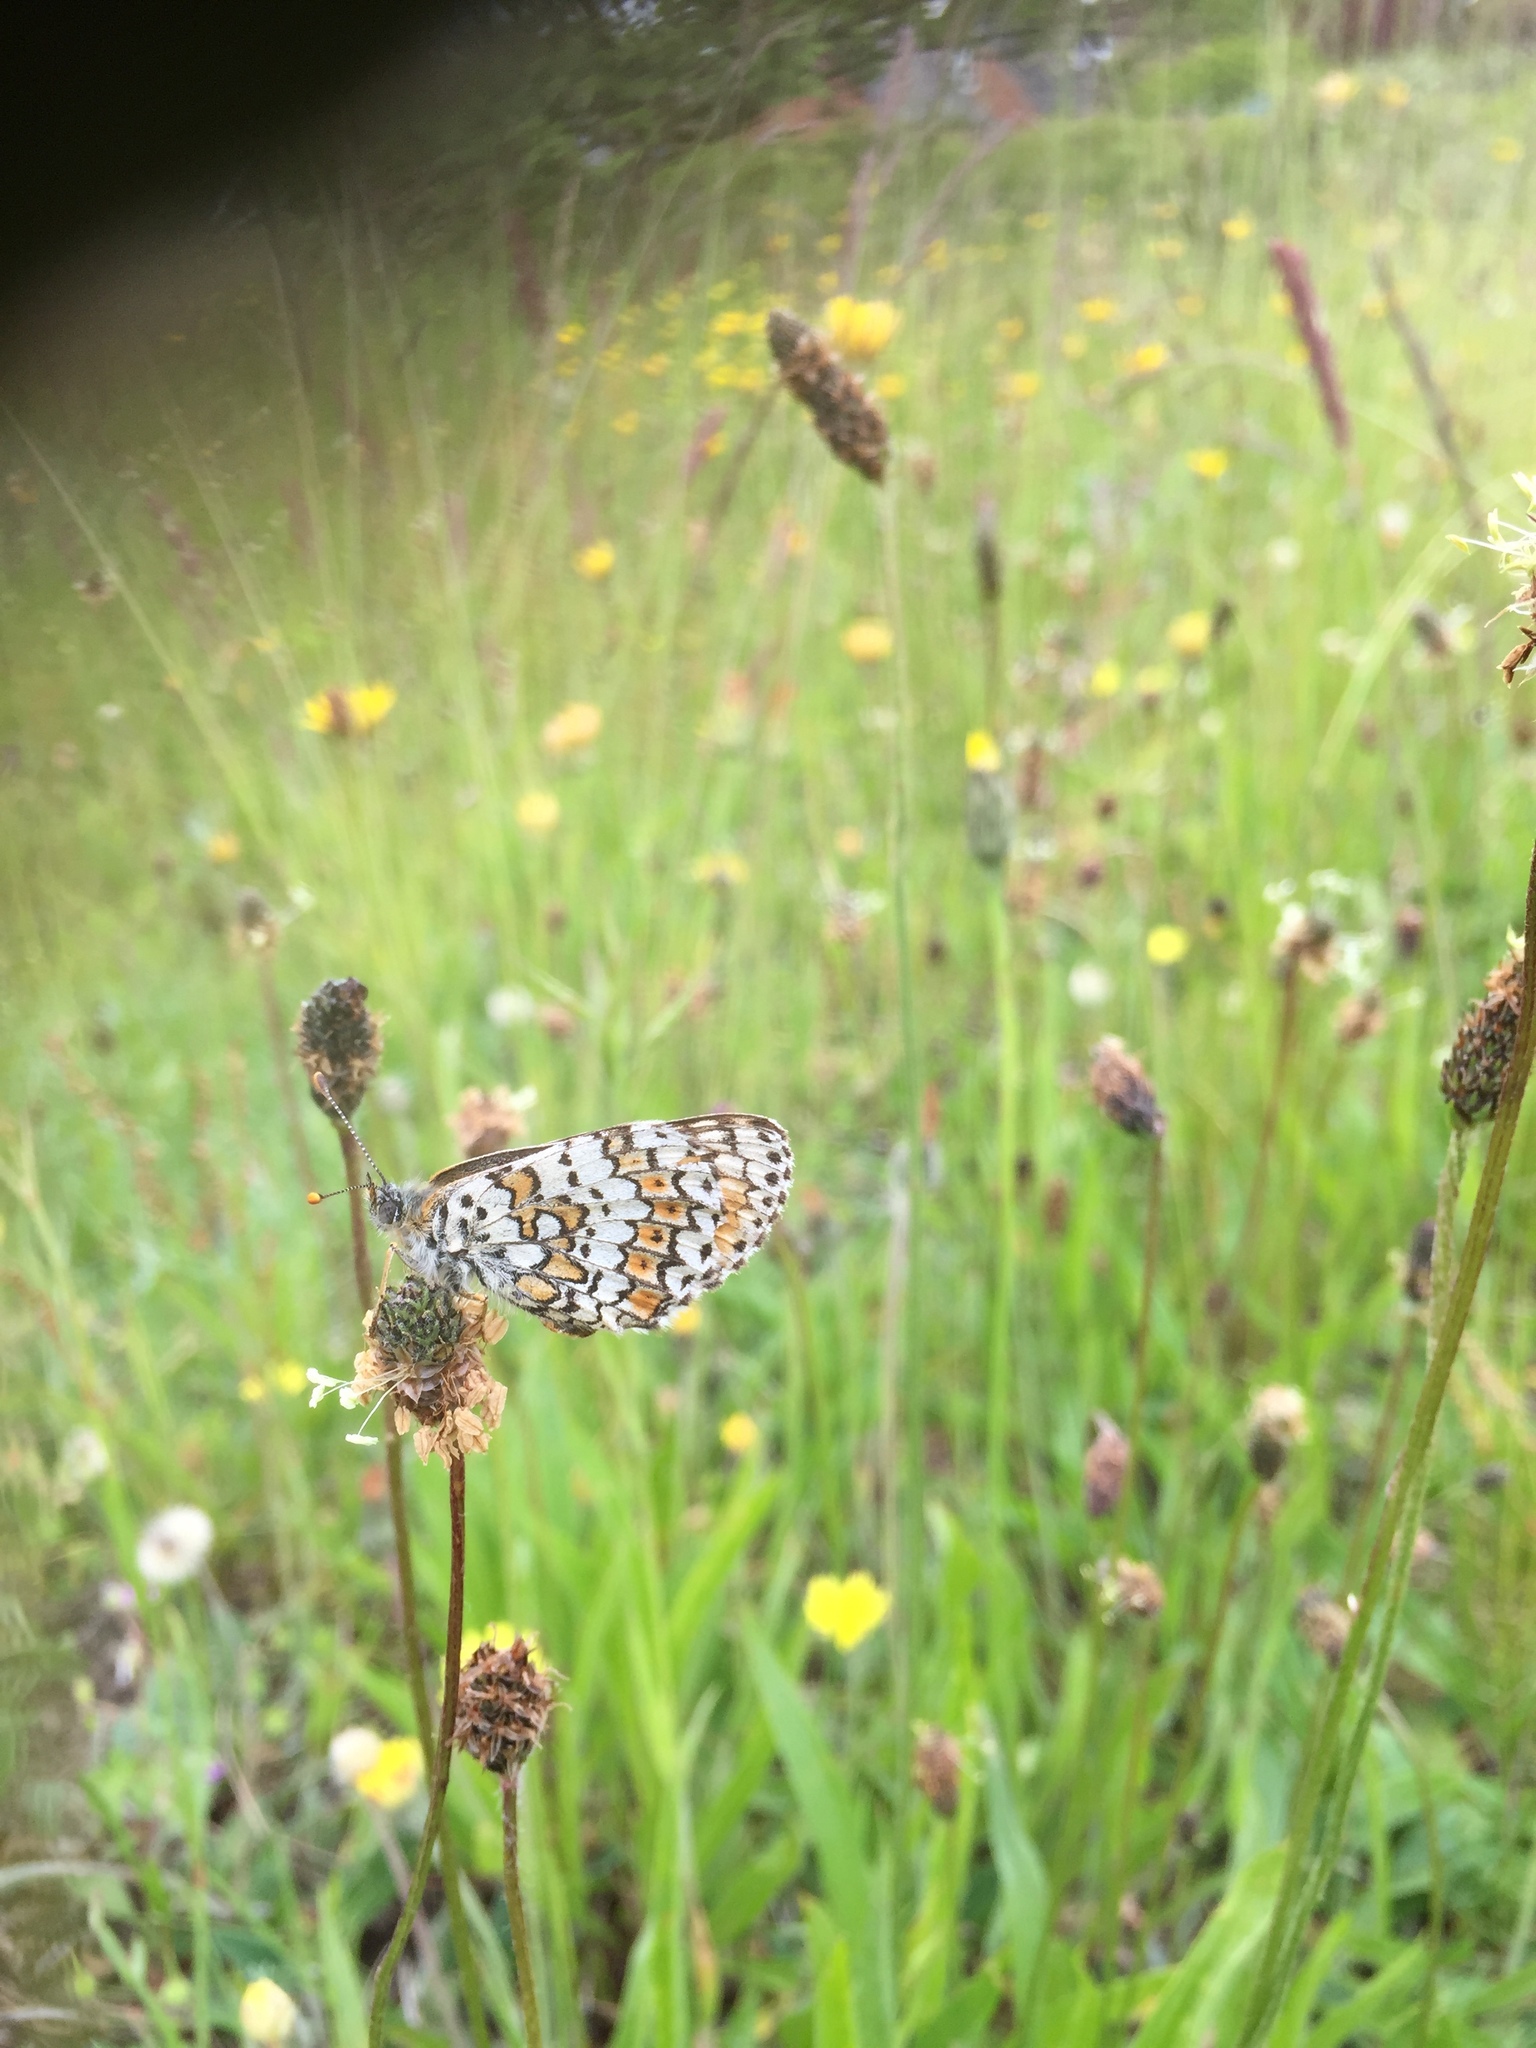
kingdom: Animalia
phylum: Arthropoda
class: Insecta
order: Lepidoptera
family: Nymphalidae
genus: Melitaea
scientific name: Melitaea cinxia
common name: Glanville fritillary
